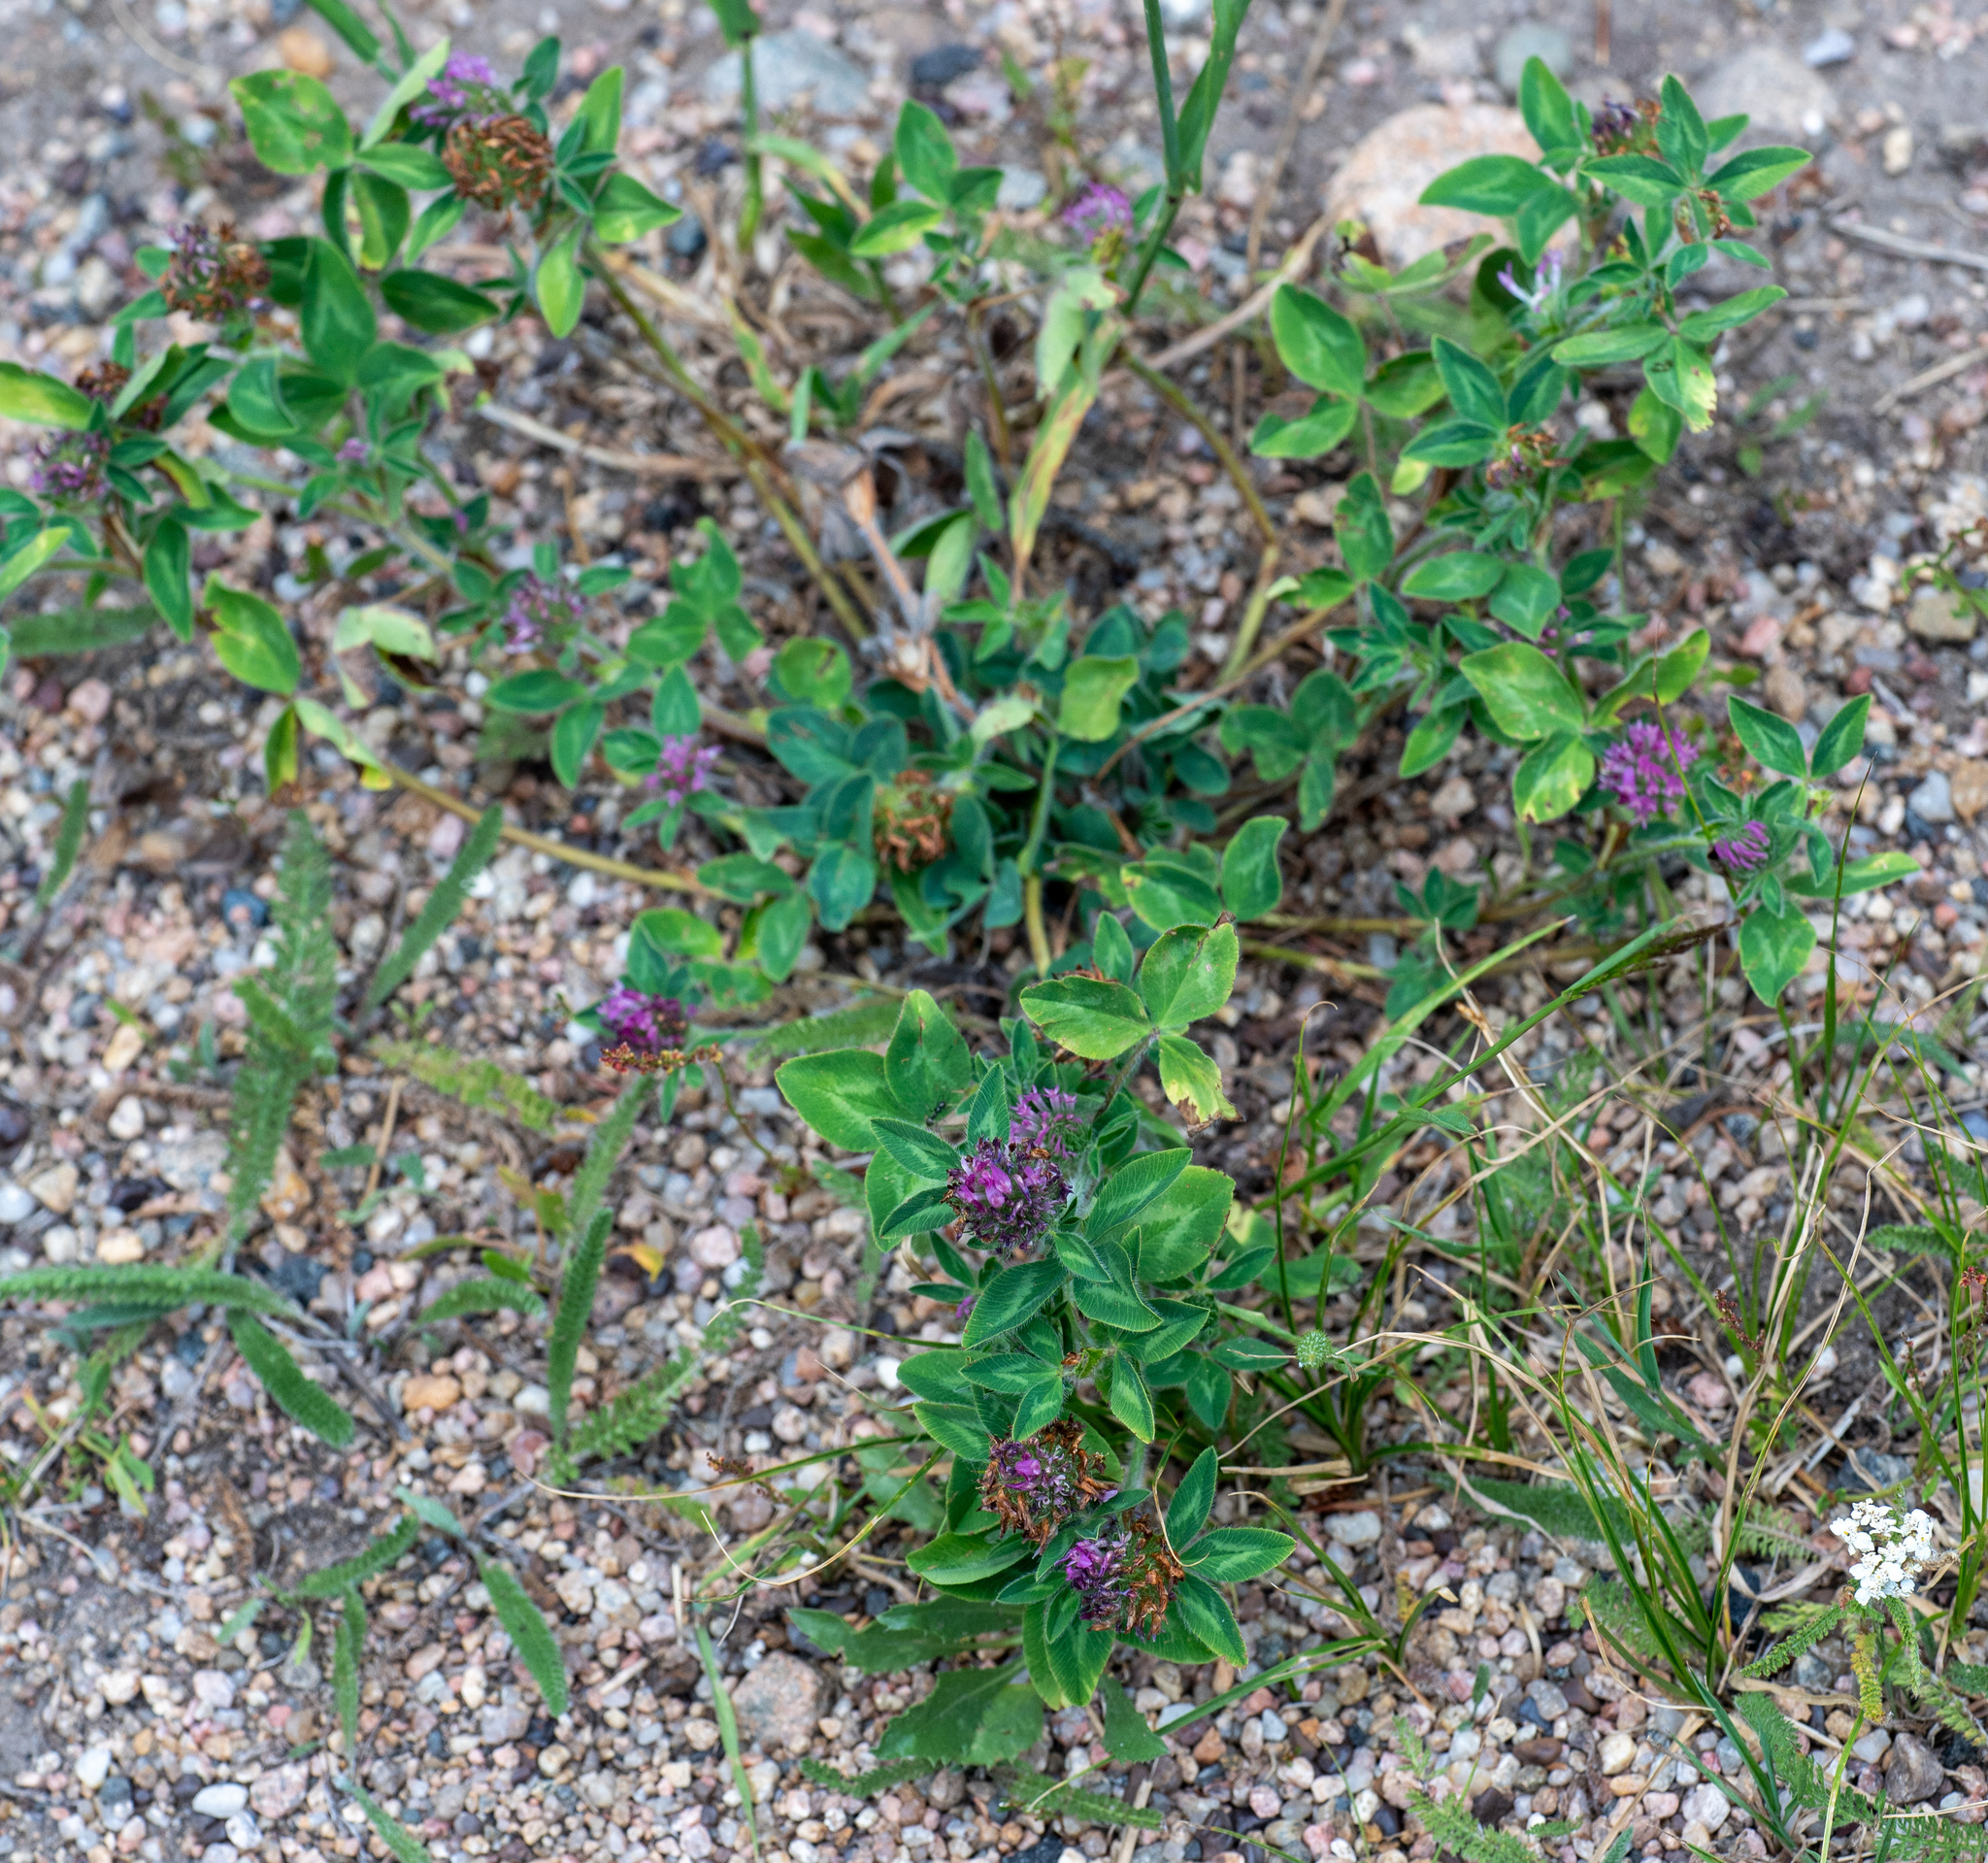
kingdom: Plantae
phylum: Tracheophyta
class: Magnoliopsida
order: Fabales
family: Fabaceae
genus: Trifolium
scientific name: Trifolium pratense
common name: Red clover
